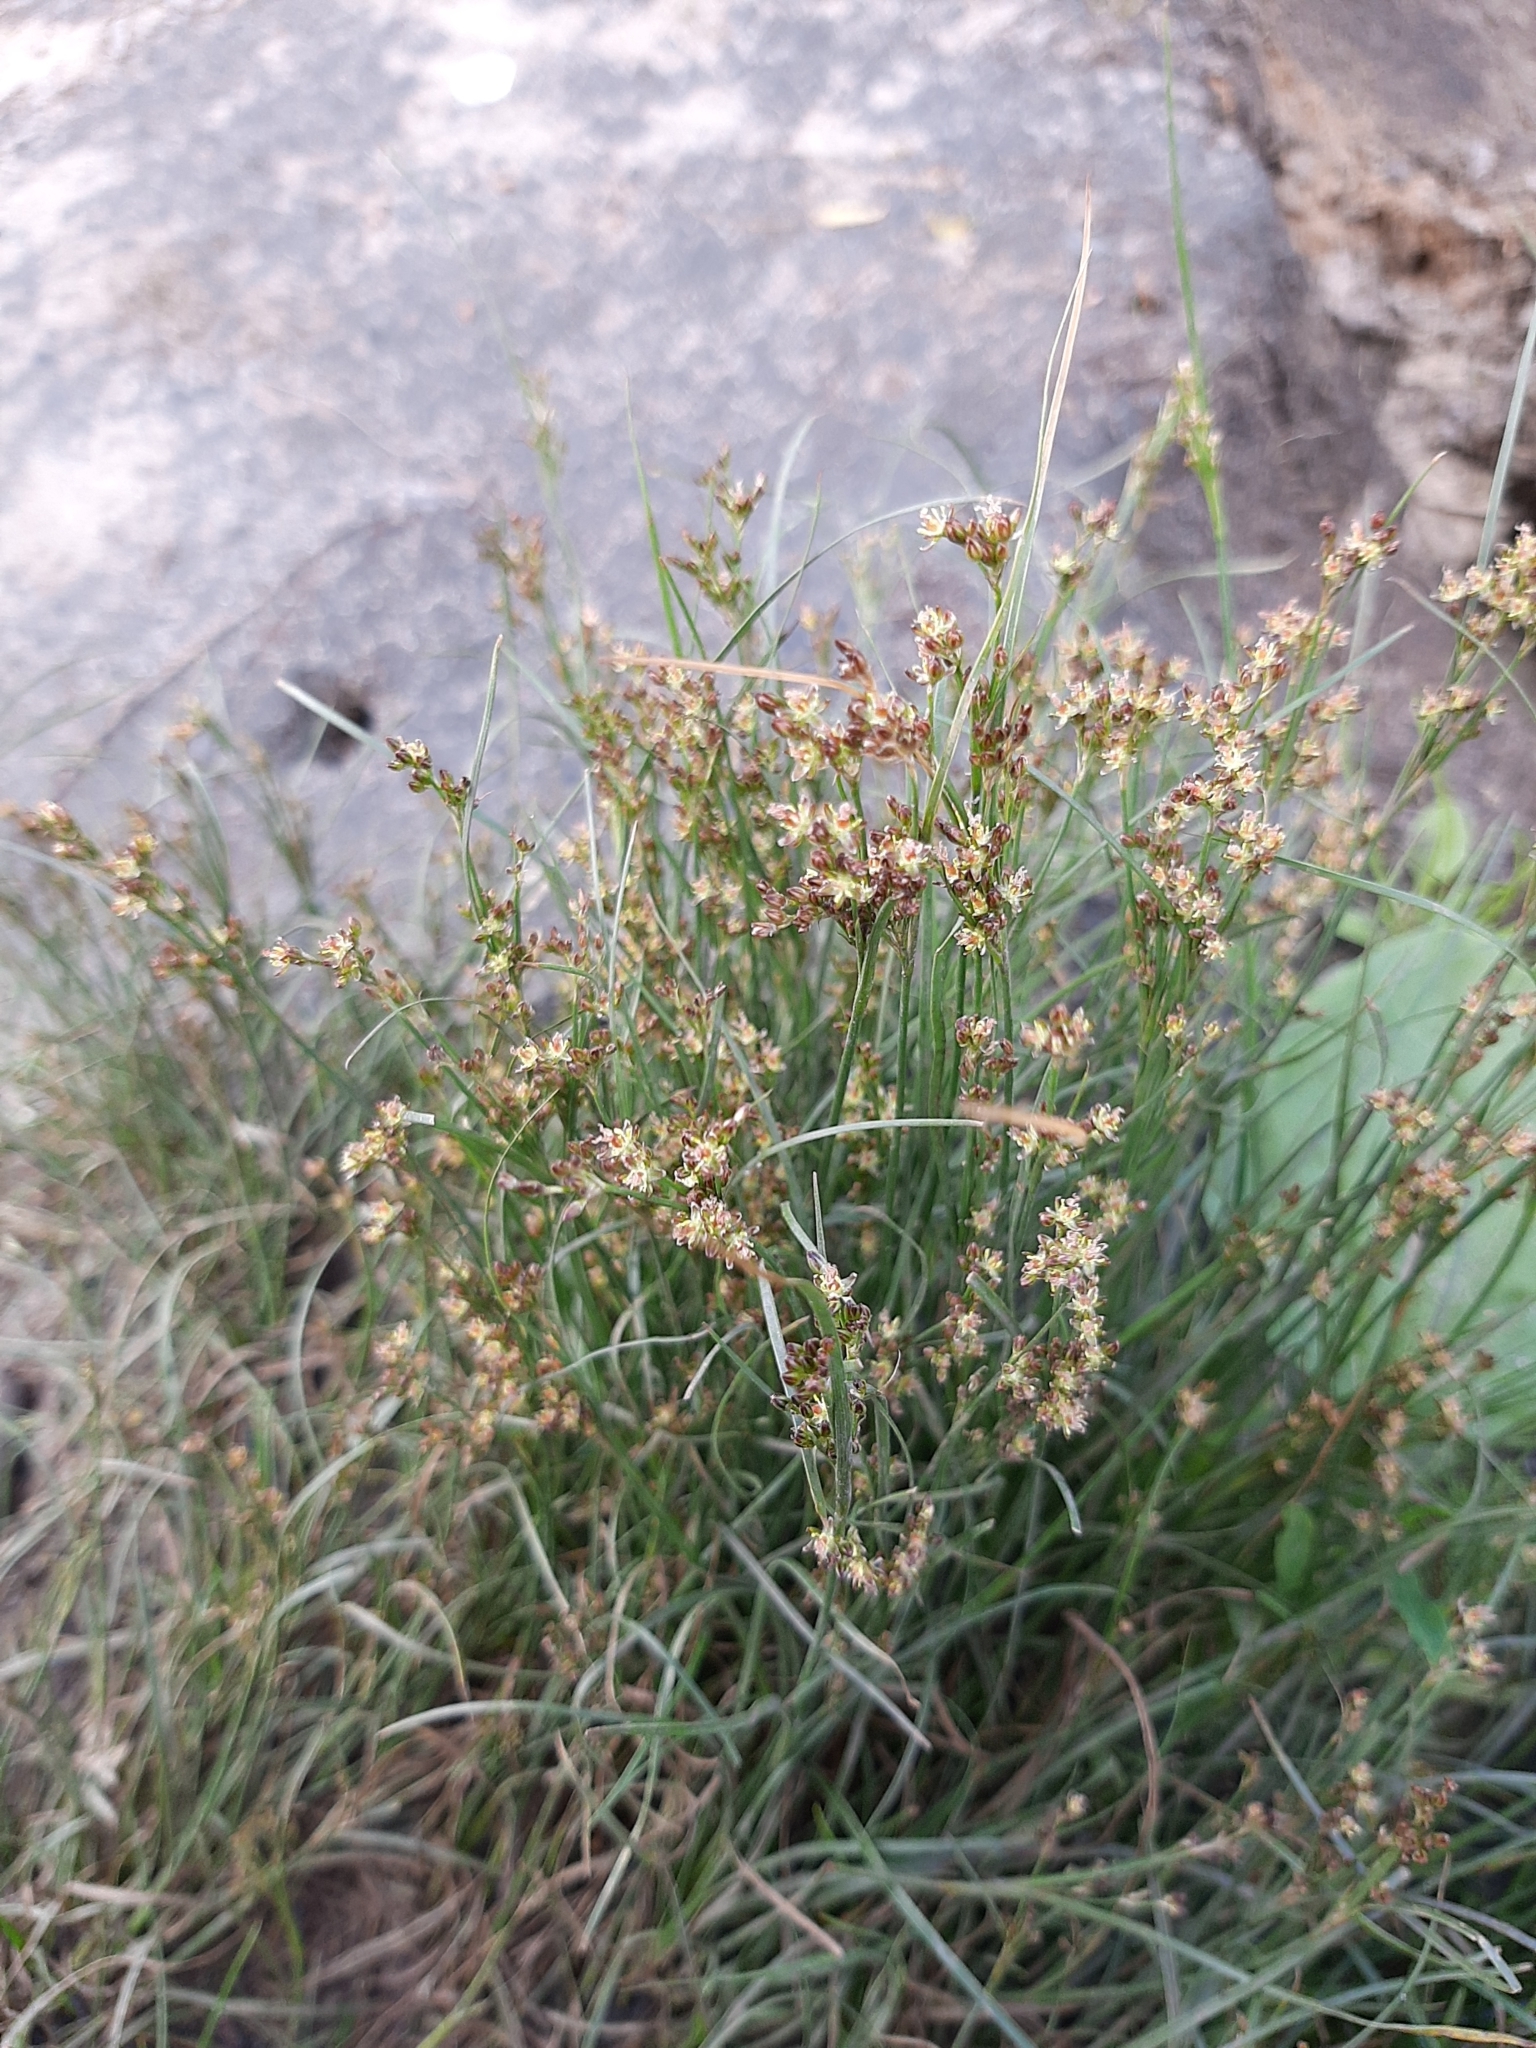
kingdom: Plantae
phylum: Tracheophyta
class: Liliopsida
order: Poales
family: Juncaceae
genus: Juncus
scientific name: Juncus compressus
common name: Round-fruited rush
